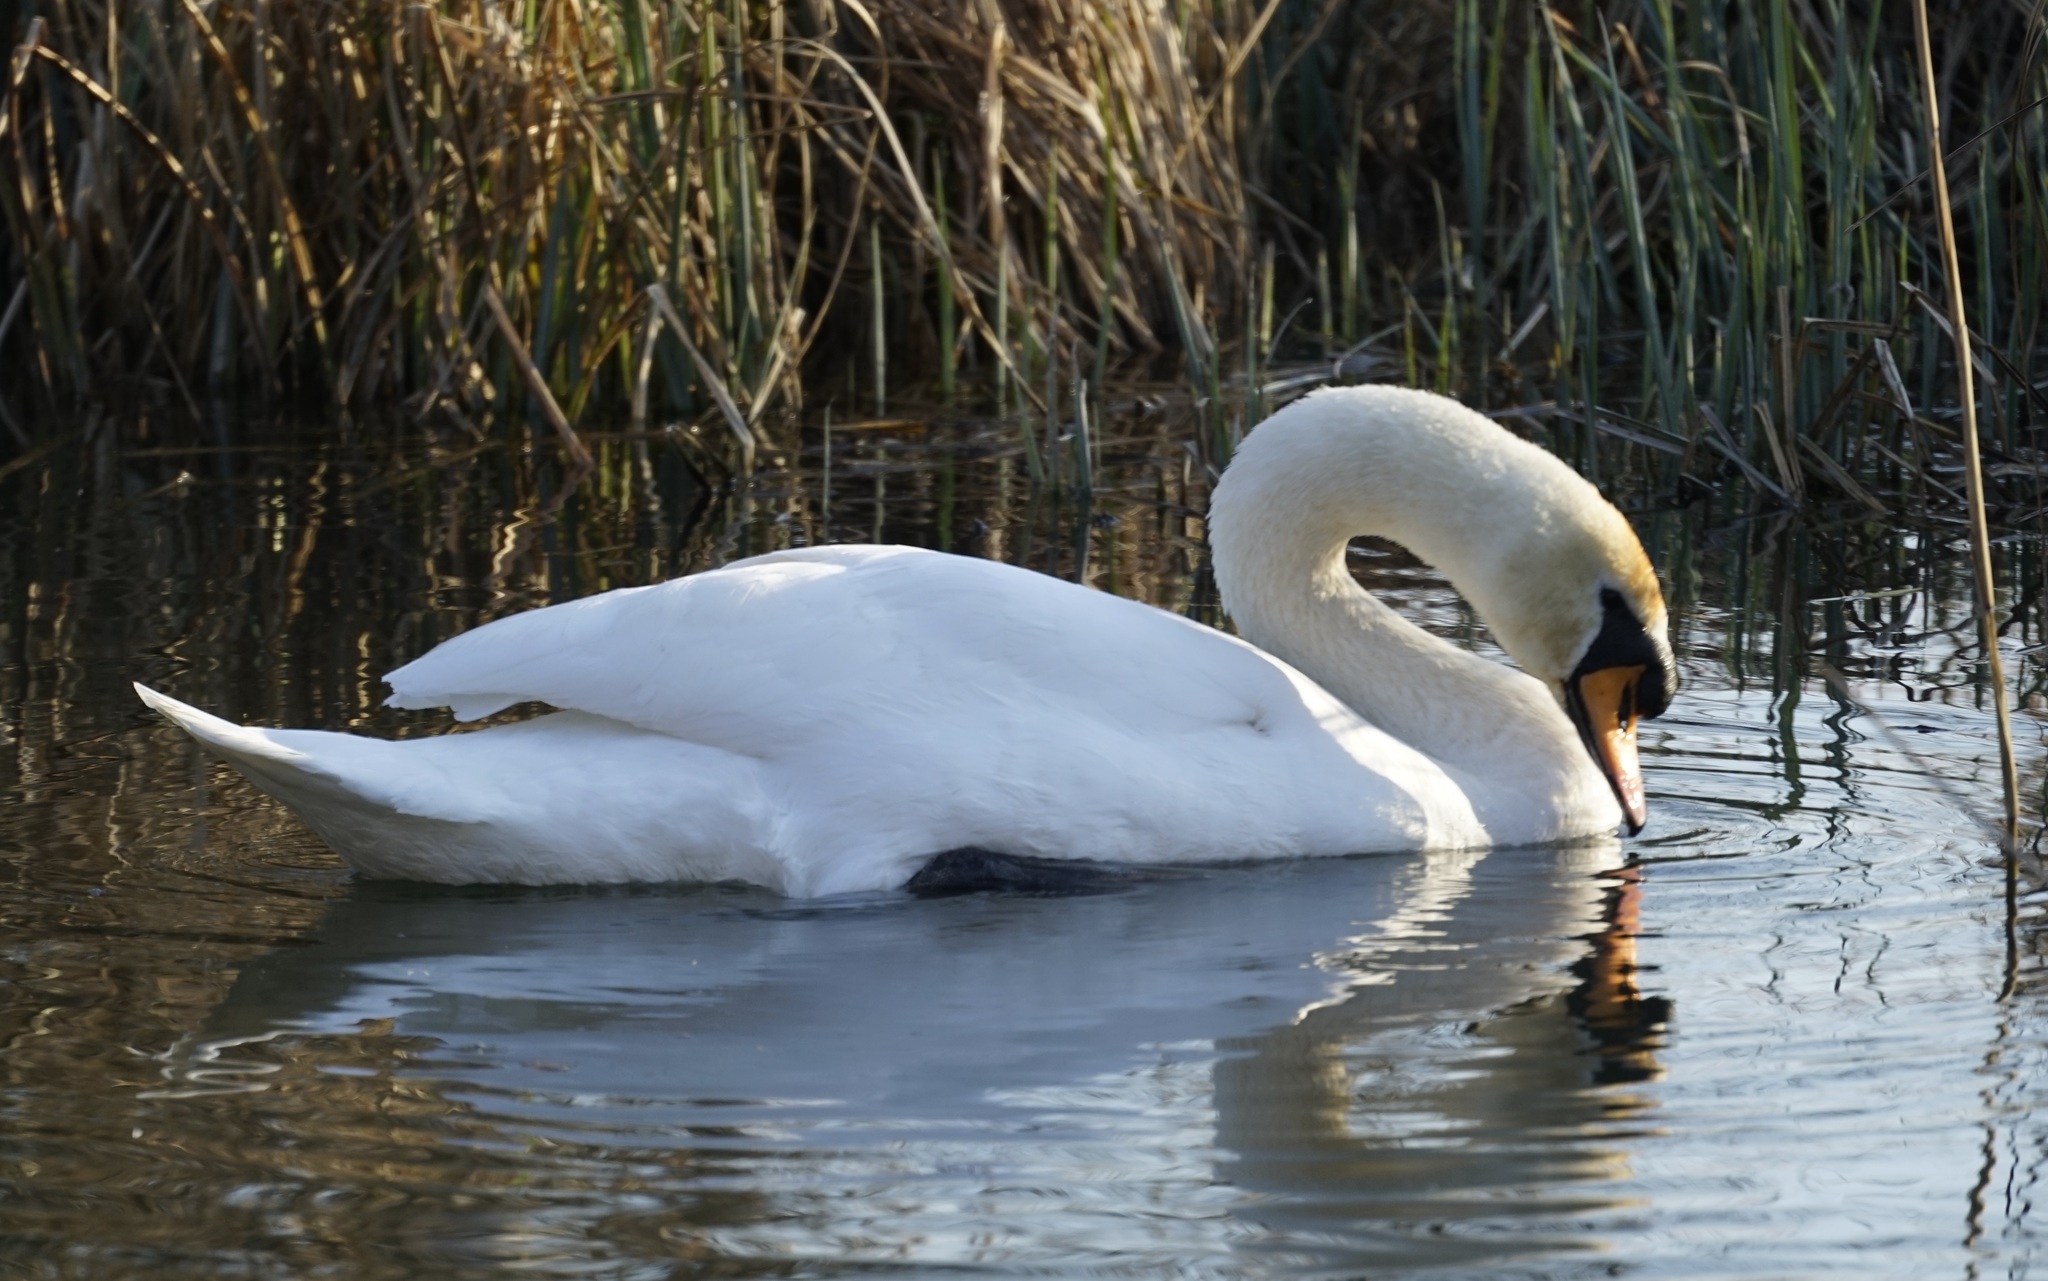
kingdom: Animalia
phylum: Chordata
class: Aves
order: Anseriformes
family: Anatidae
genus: Cygnus
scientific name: Cygnus olor
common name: Mute swan
